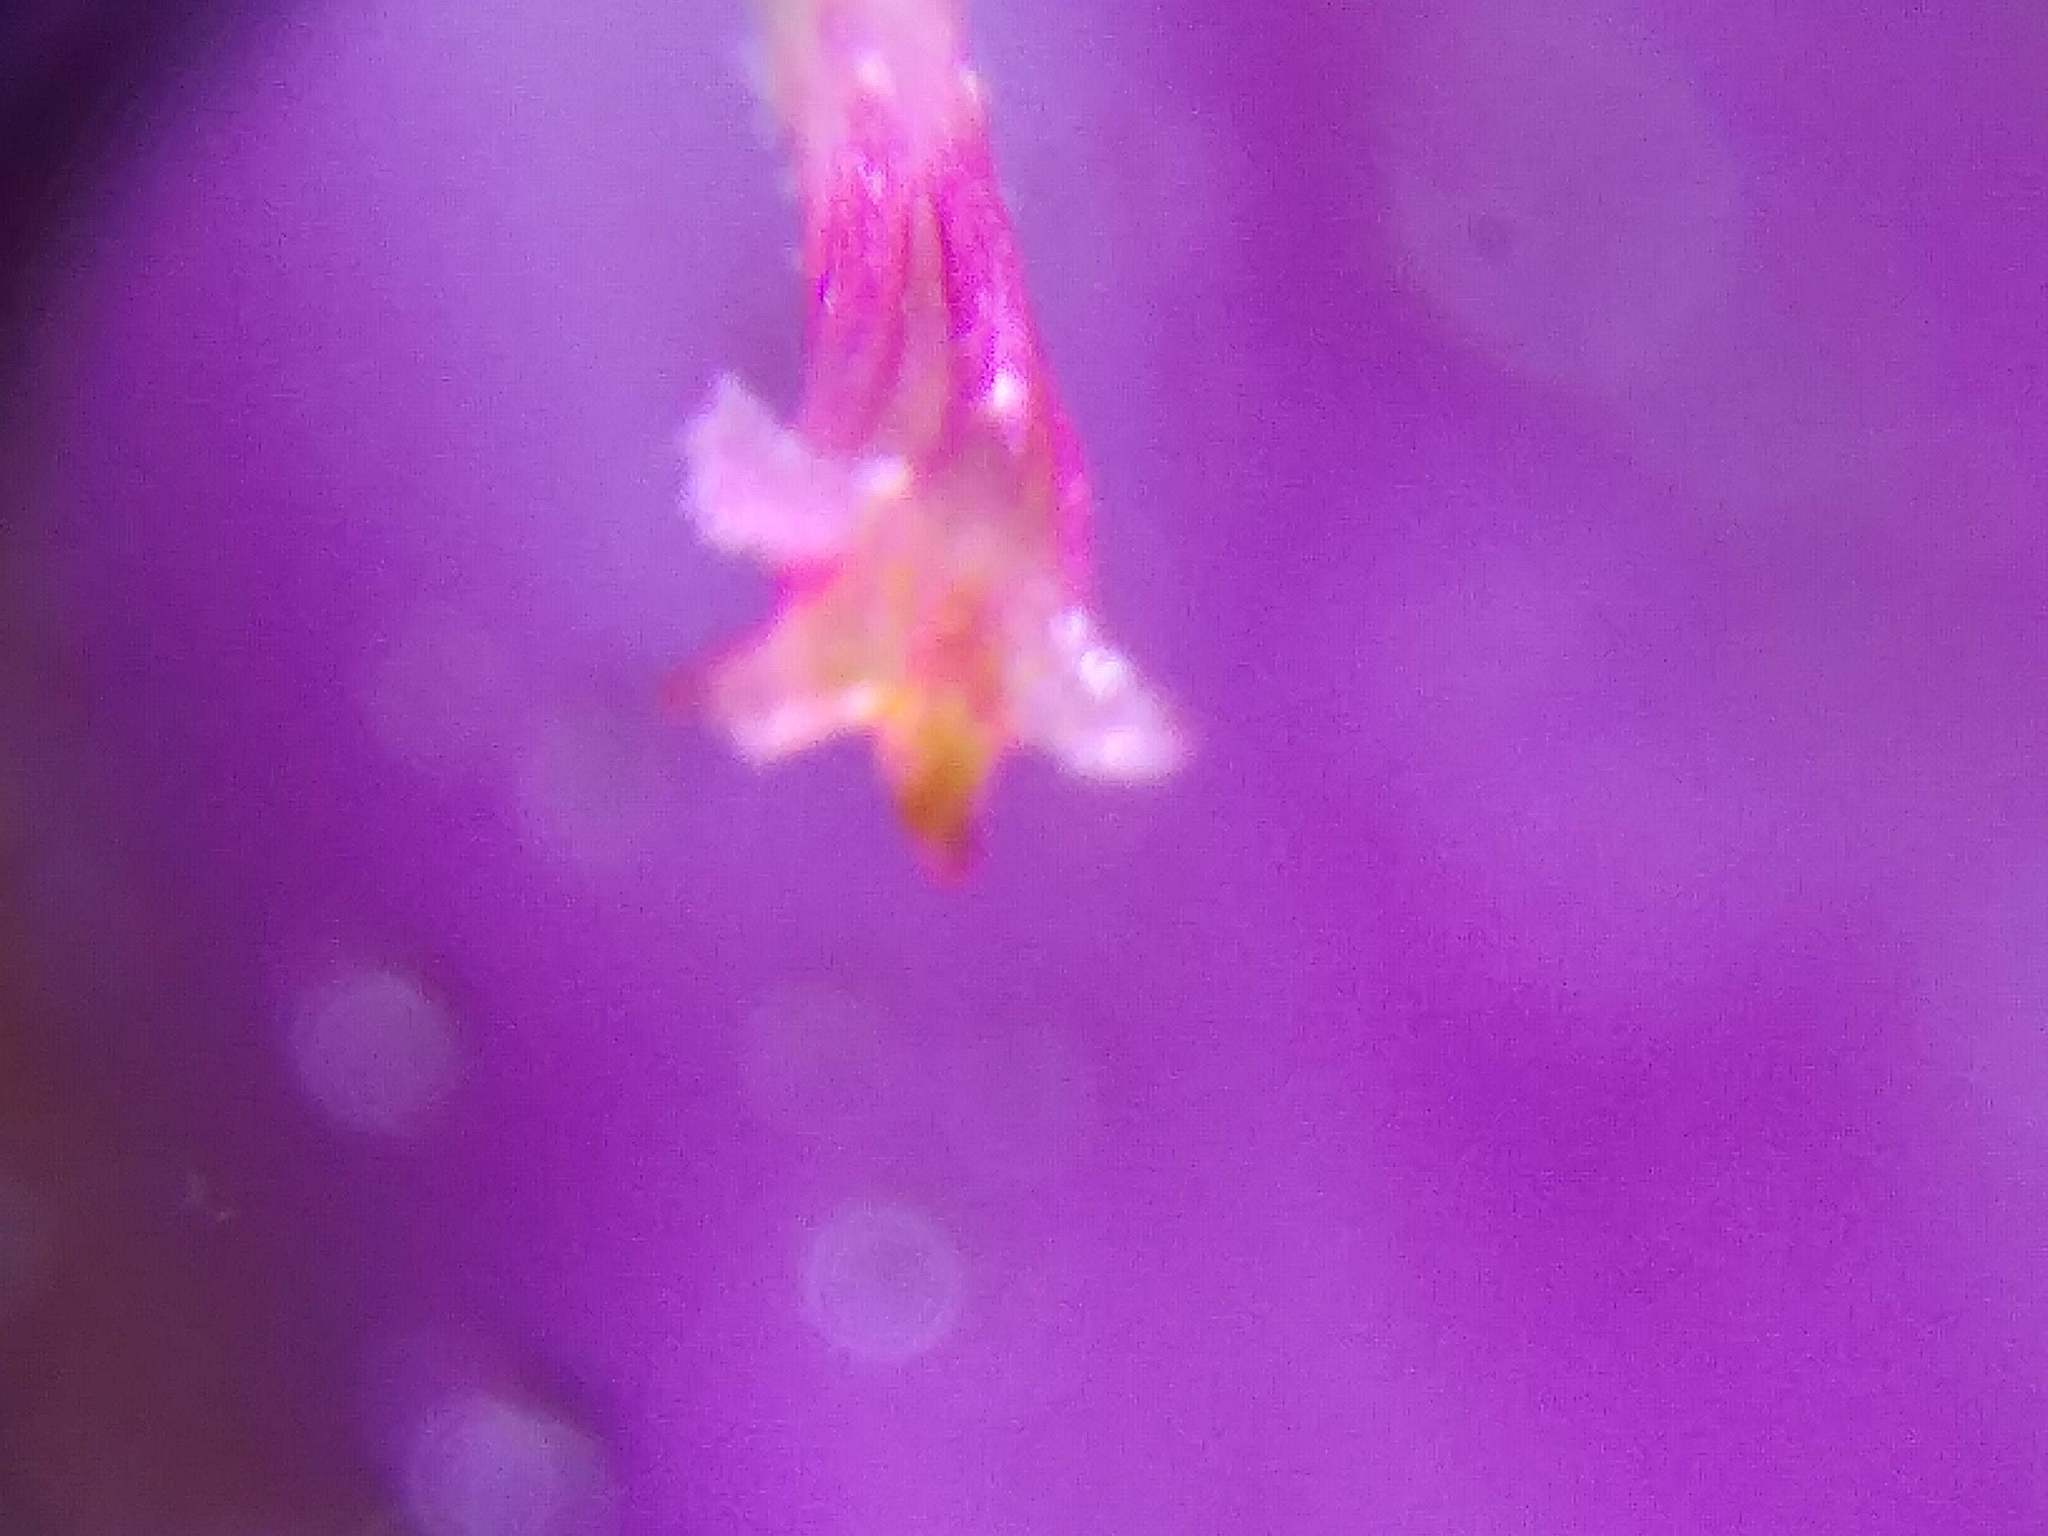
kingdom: Plantae
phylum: Tracheophyta
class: Magnoliopsida
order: Lamiales
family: Lamiaceae
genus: Prunella
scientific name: Prunella vulgaris
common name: Heal-all
